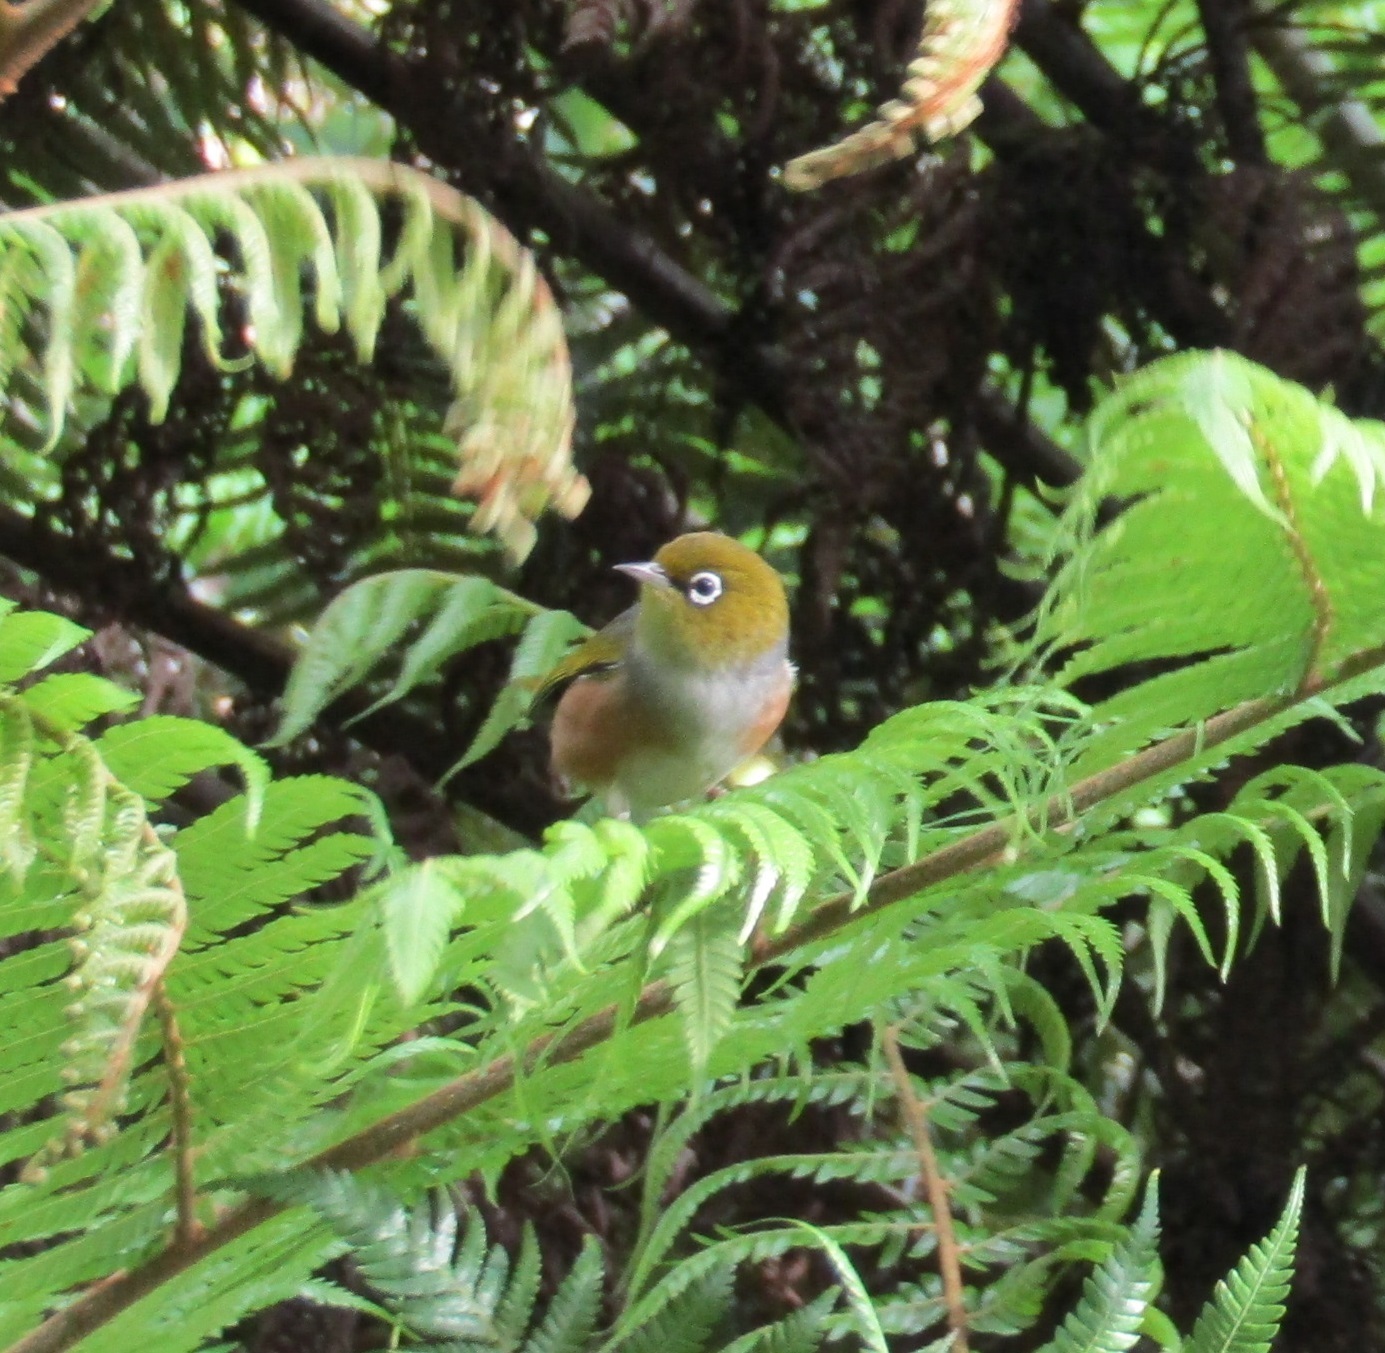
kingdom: Animalia
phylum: Chordata
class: Aves
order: Passeriformes
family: Zosteropidae
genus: Zosterops
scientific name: Zosterops lateralis
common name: Silvereye
